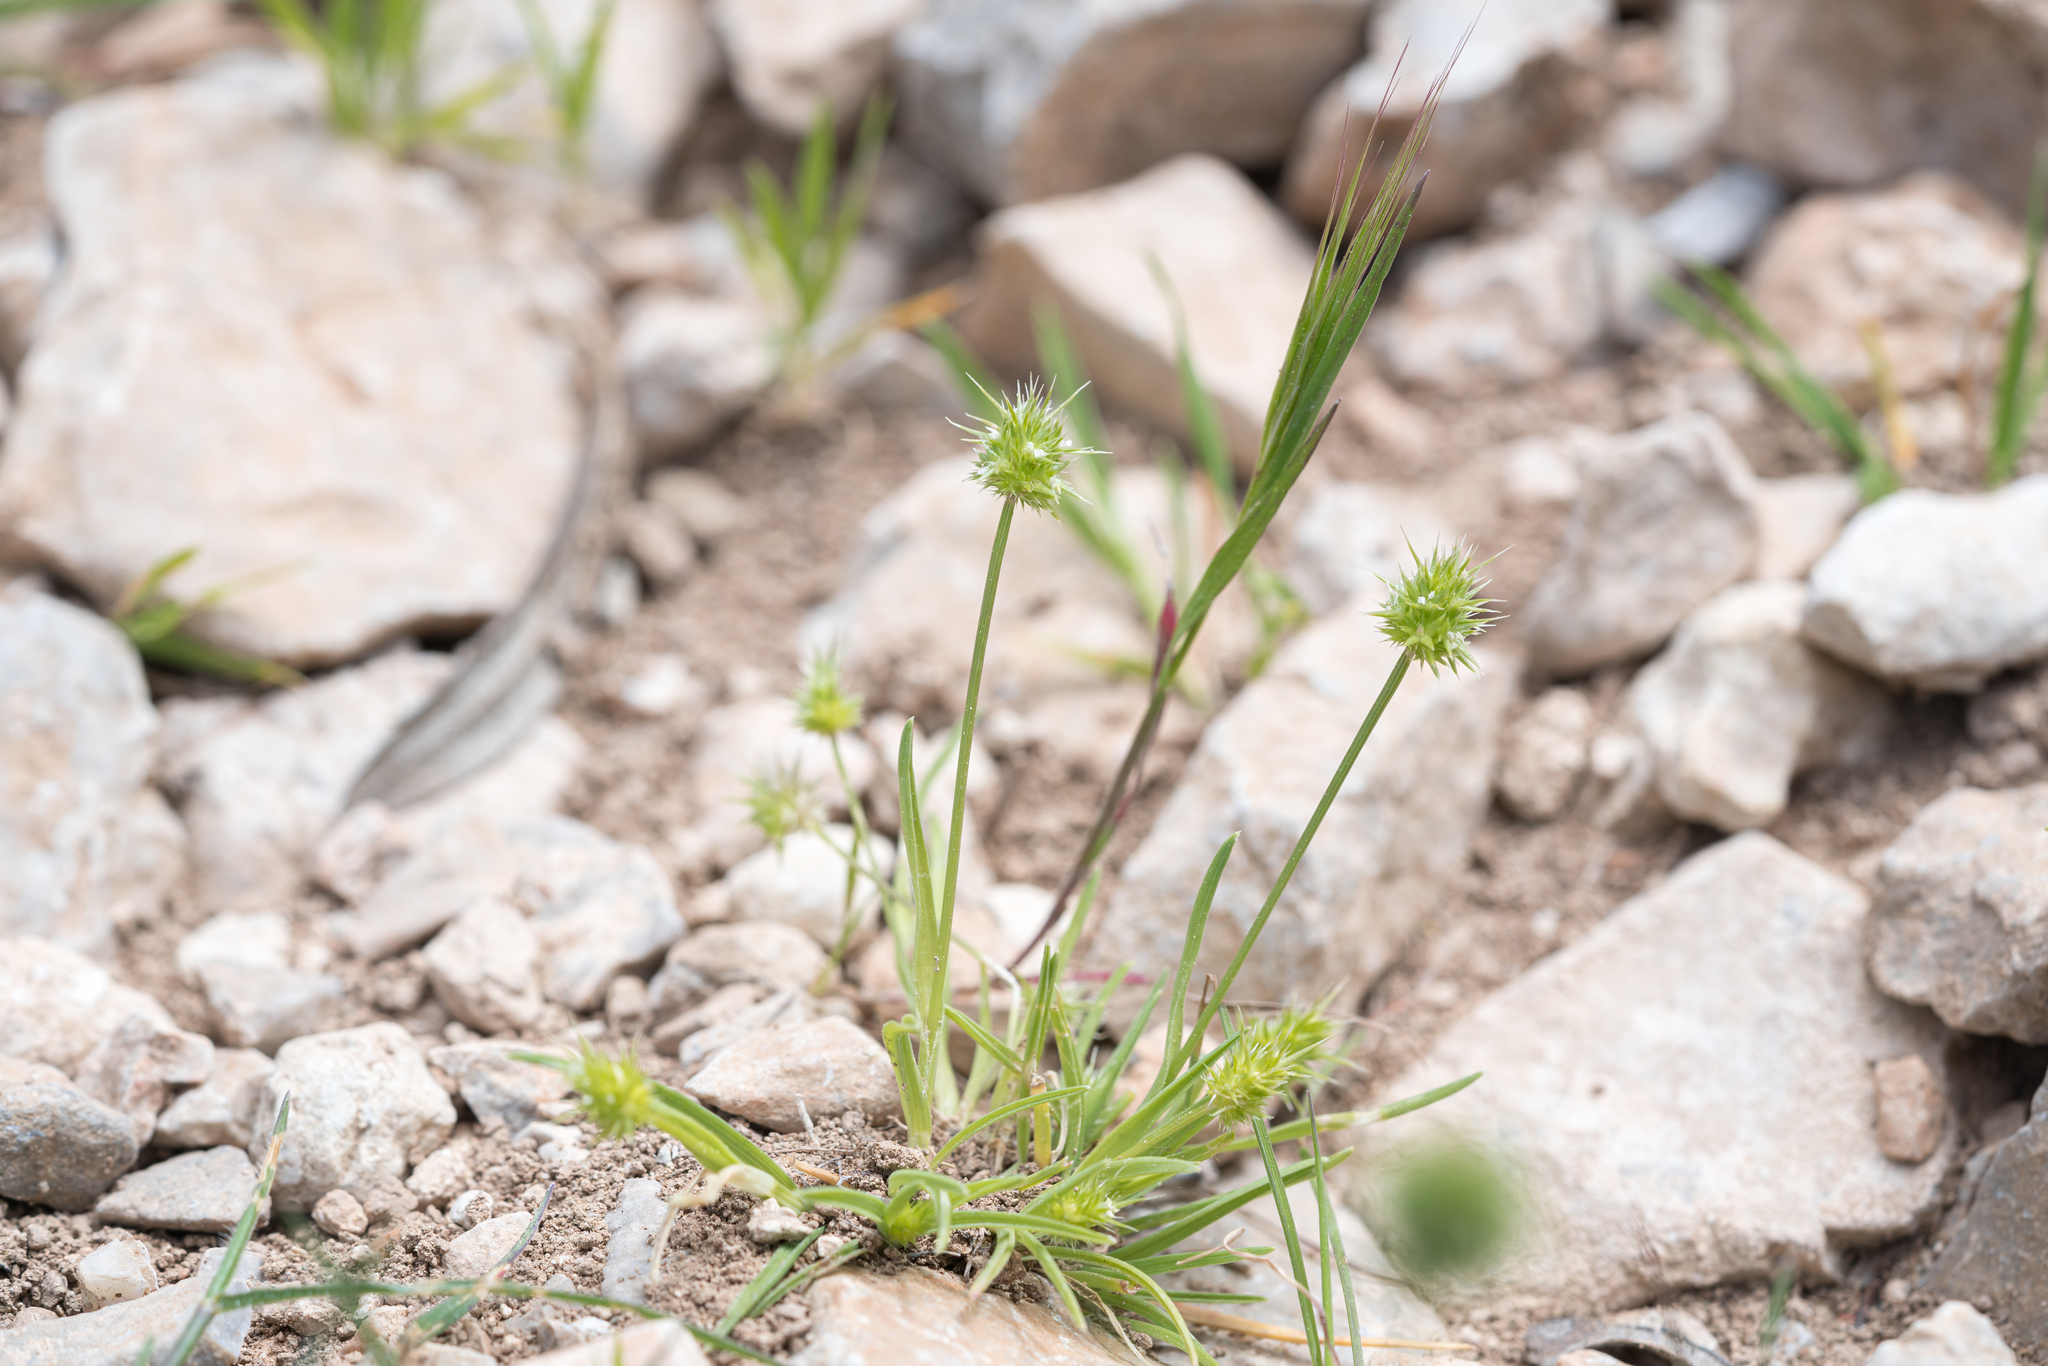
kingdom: Plantae
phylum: Tracheophyta
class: Liliopsida
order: Poales
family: Poaceae
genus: Echinaria
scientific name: Echinaria capitata
